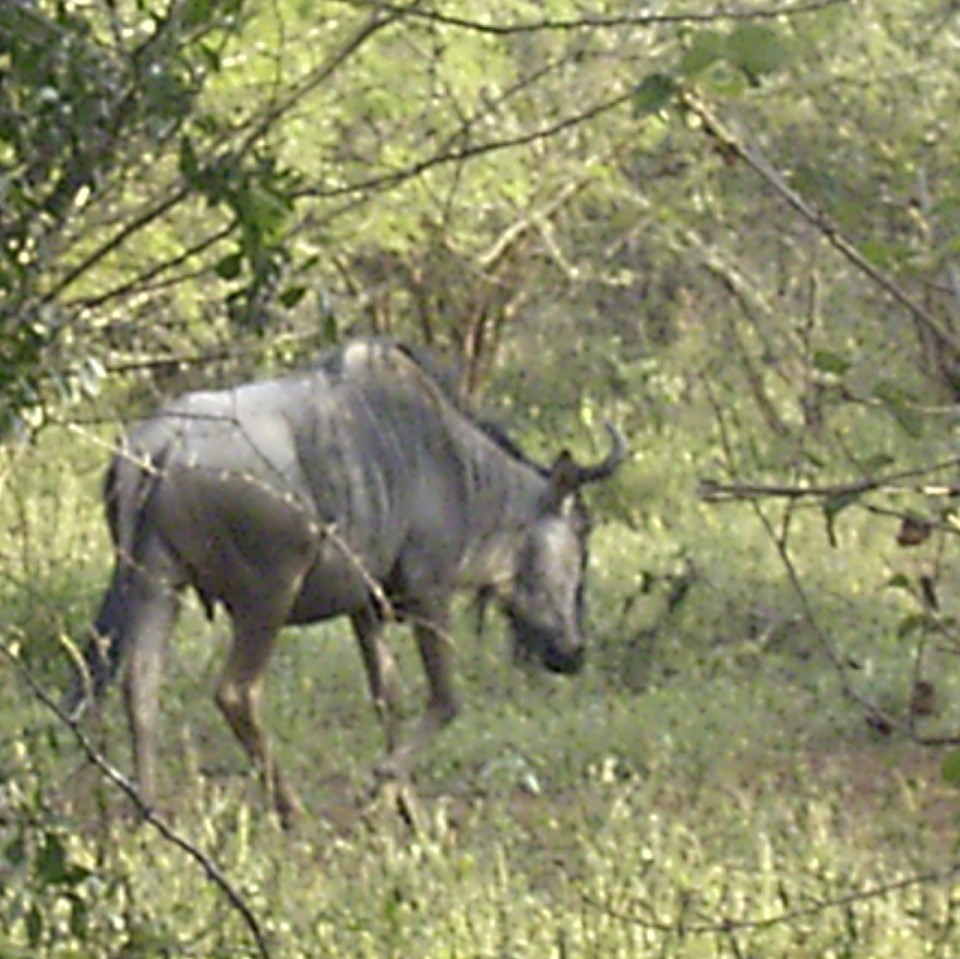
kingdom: Animalia
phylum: Chordata
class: Mammalia
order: Artiodactyla
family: Bovidae
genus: Connochaetes
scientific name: Connochaetes taurinus
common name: Blue wildebeest
